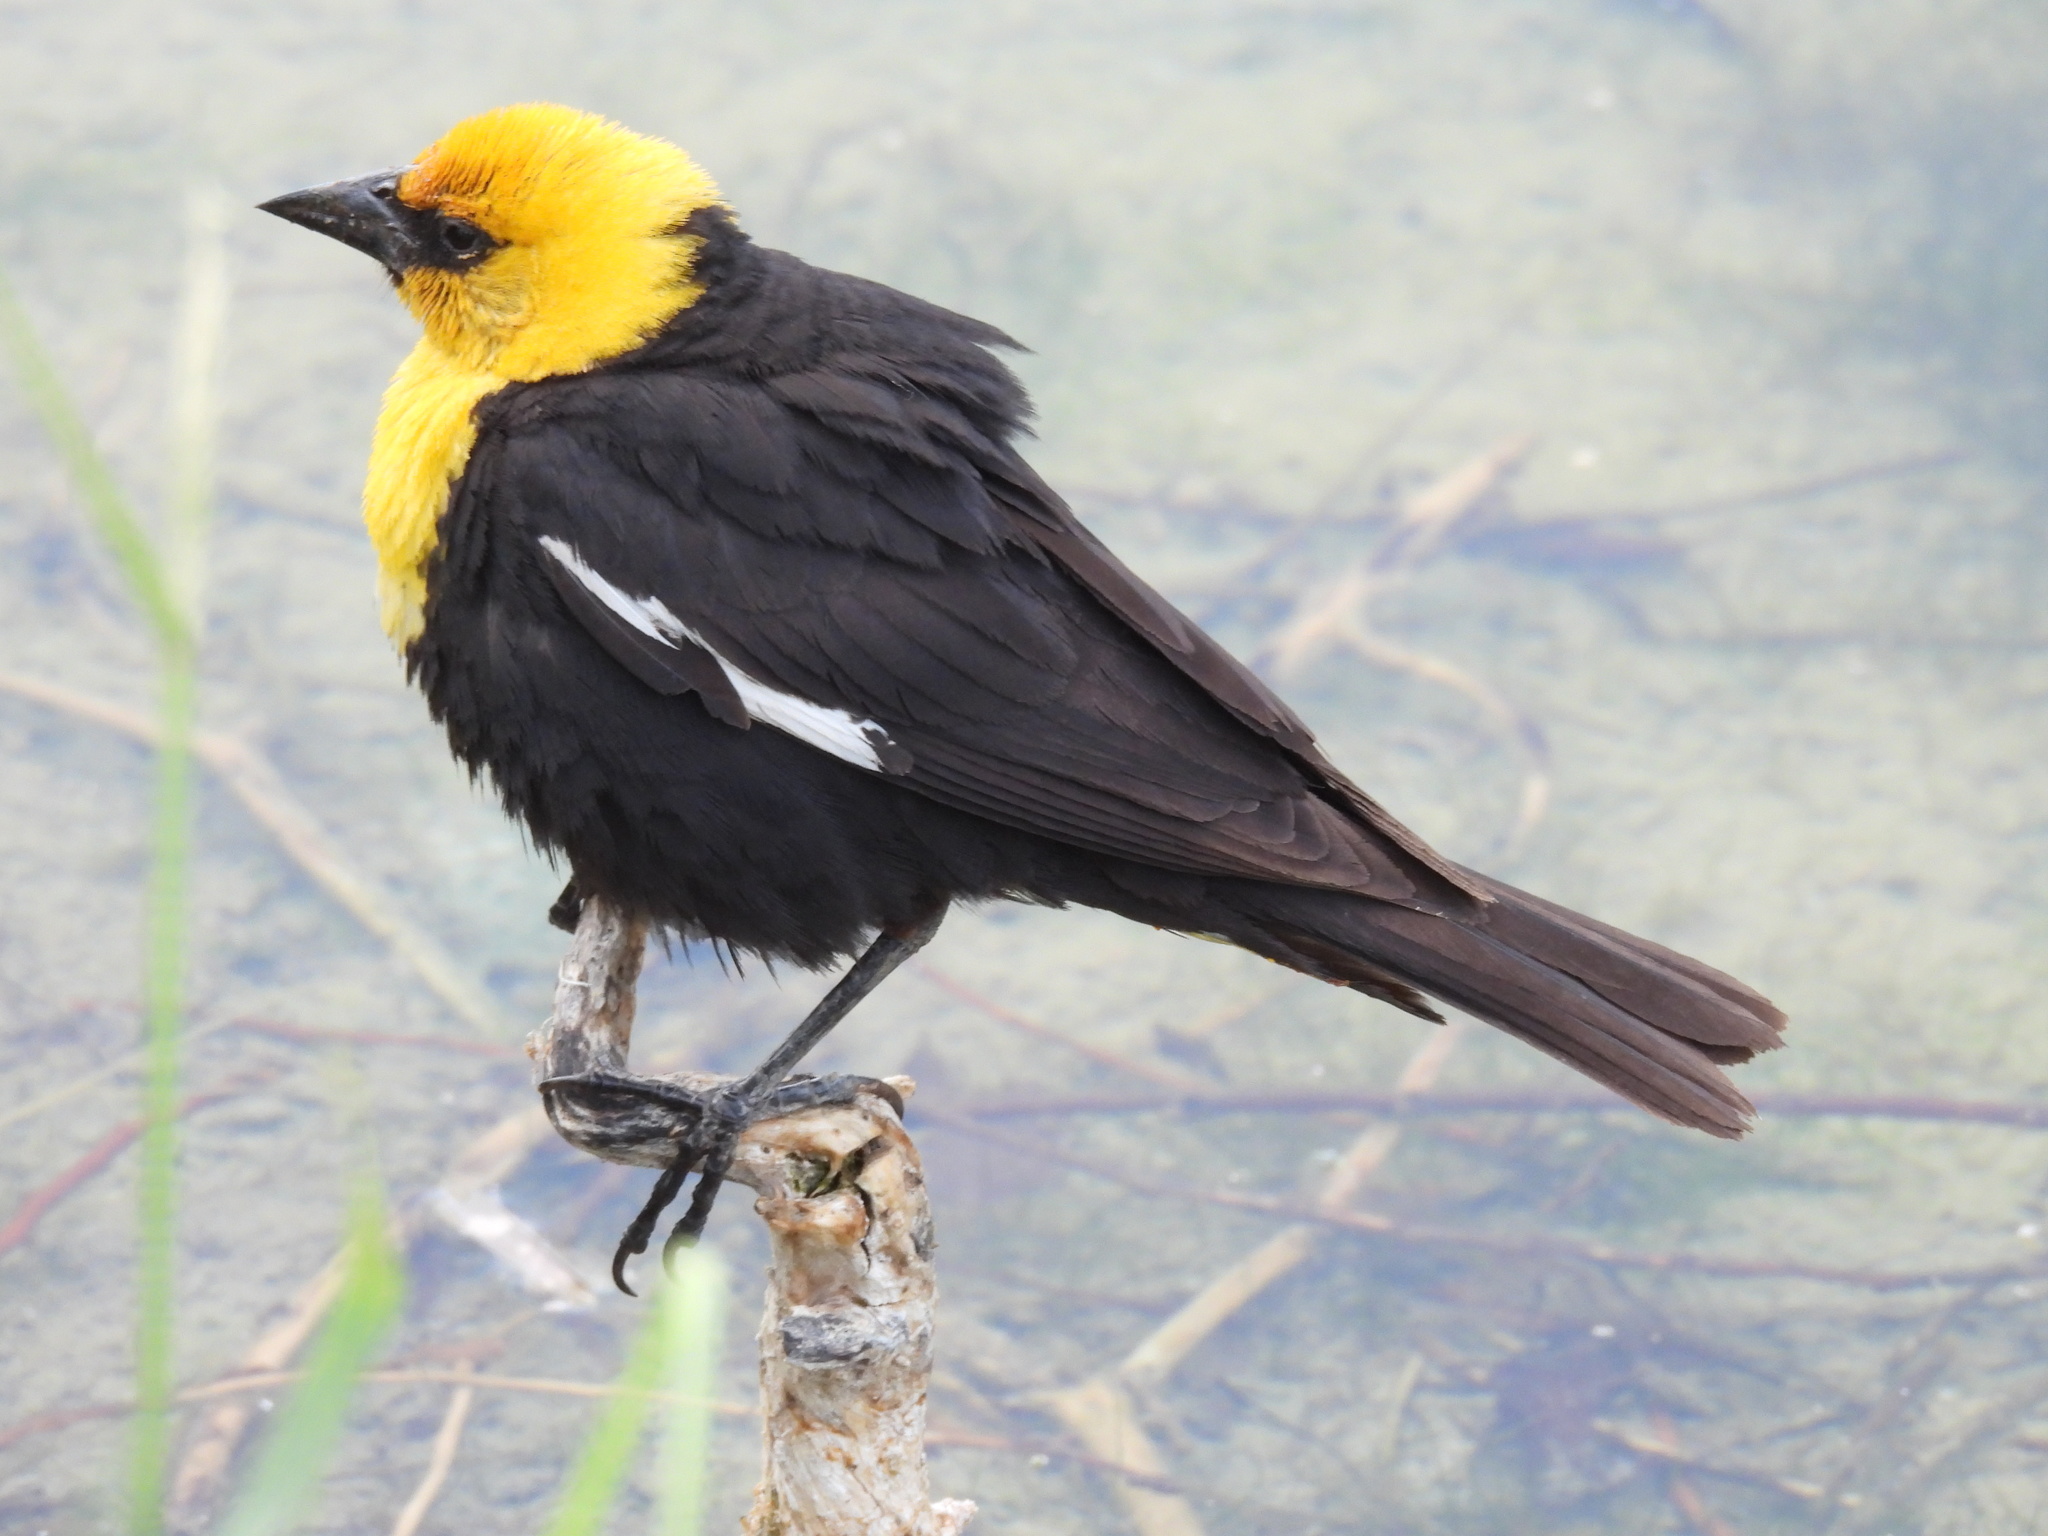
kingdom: Animalia
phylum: Chordata
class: Aves
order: Passeriformes
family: Icteridae
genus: Xanthocephalus
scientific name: Xanthocephalus xanthocephalus
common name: Yellow-headed blackbird
